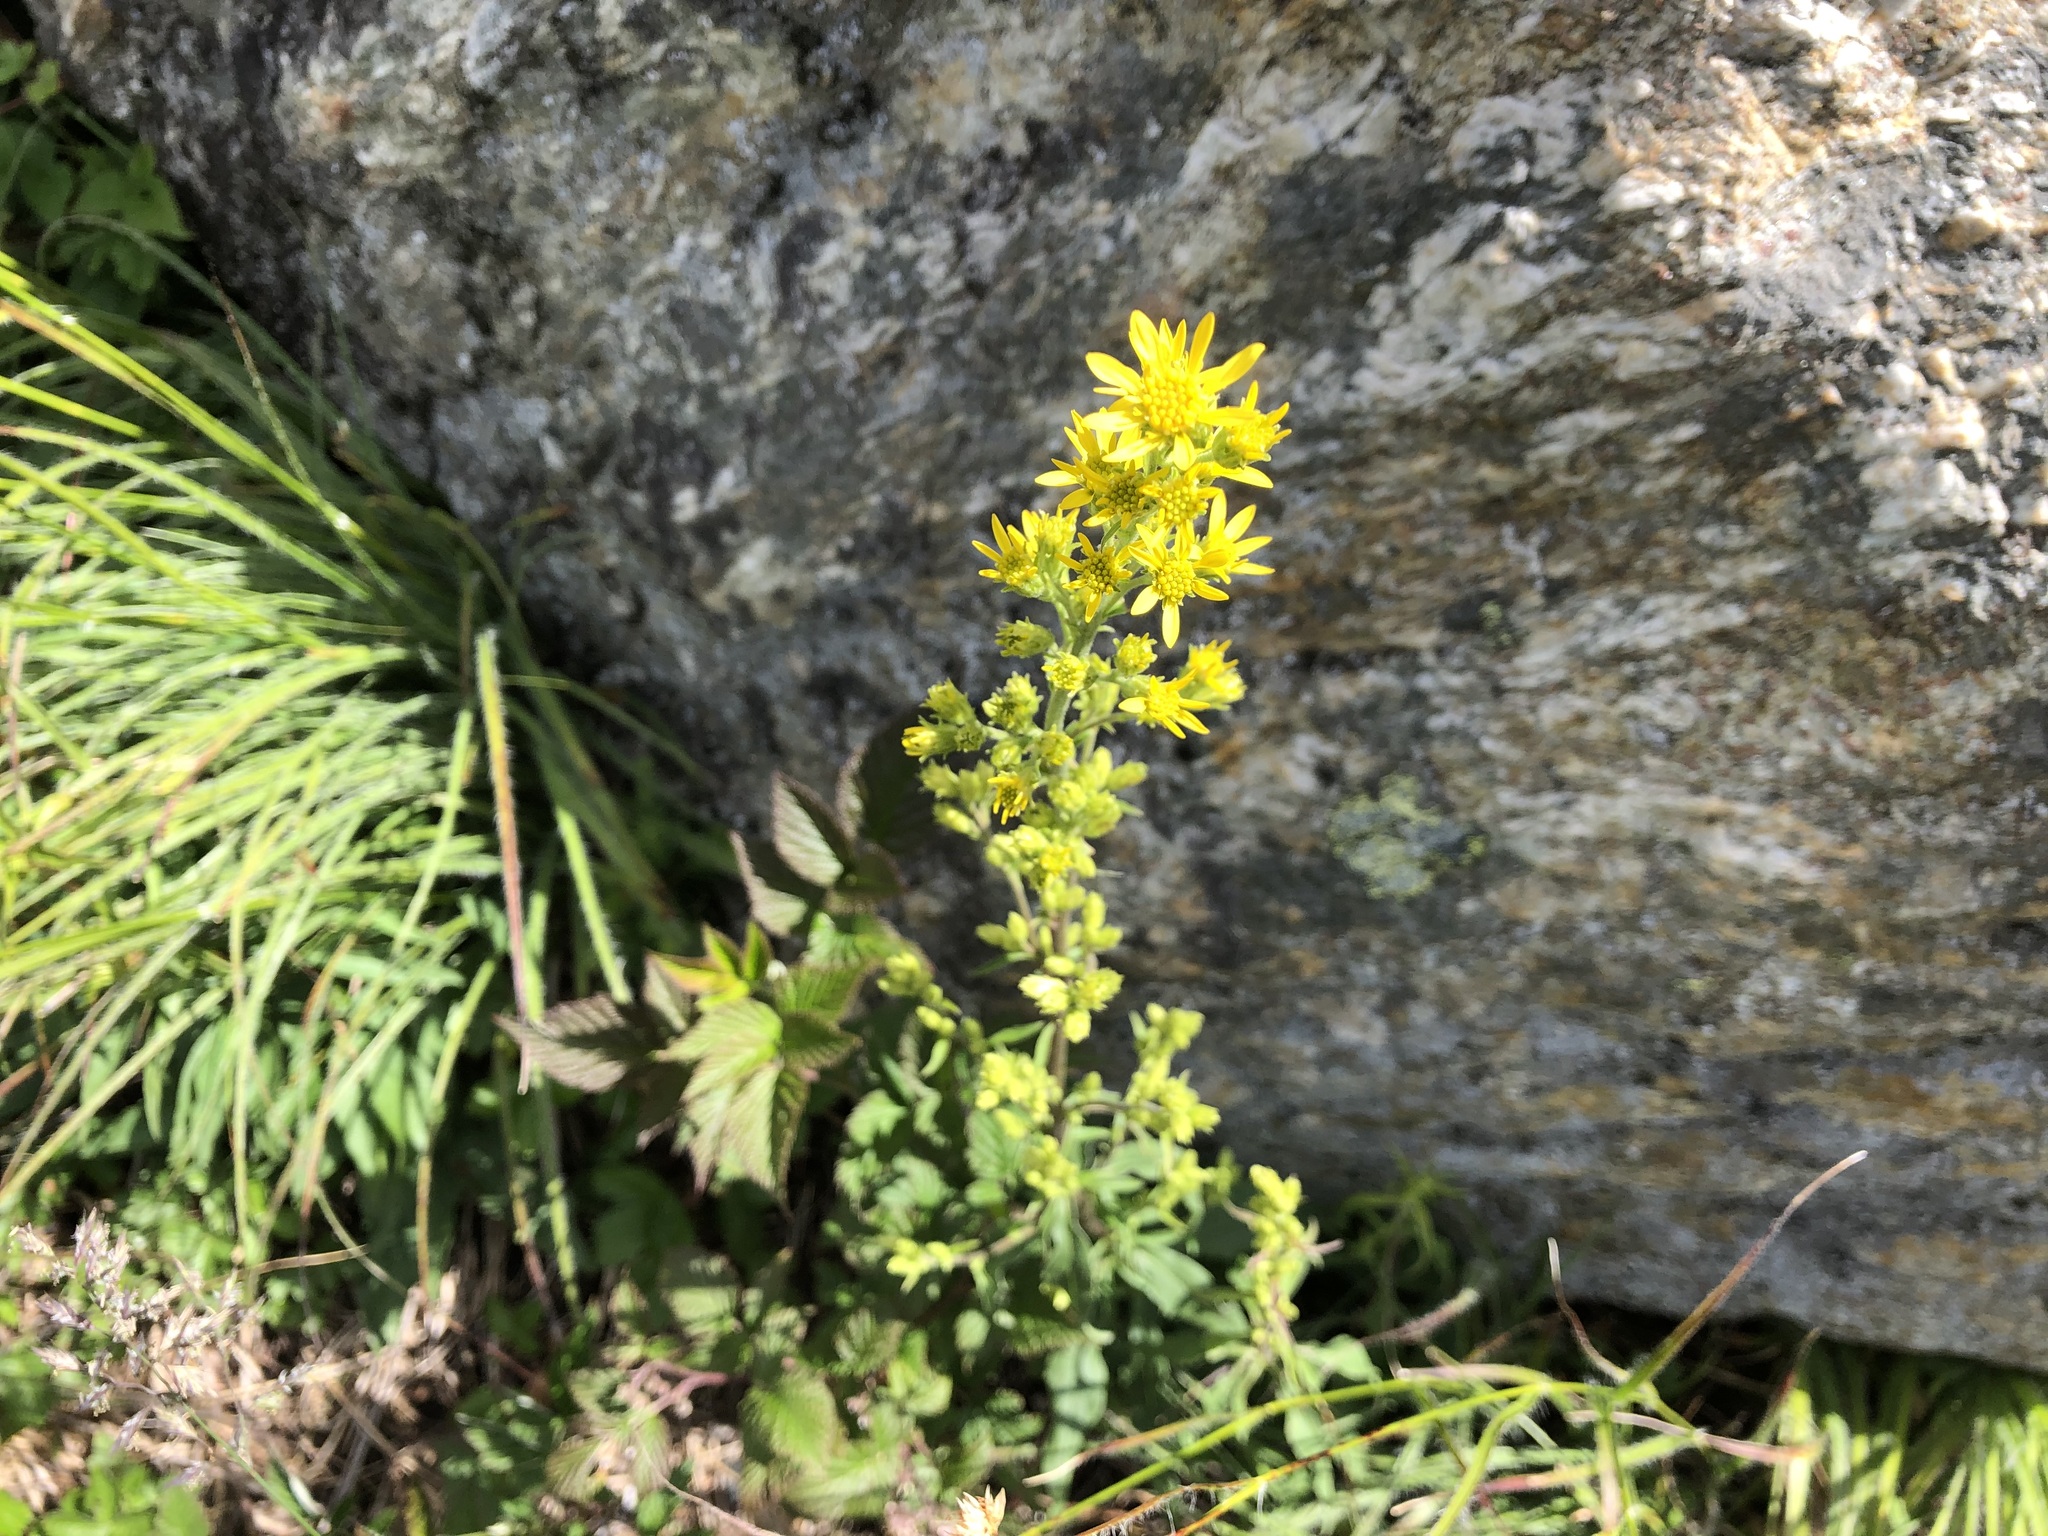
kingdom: Plantae
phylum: Tracheophyta
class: Magnoliopsida
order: Asterales
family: Asteraceae
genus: Solidago
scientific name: Solidago virgaurea
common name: Goldenrod
